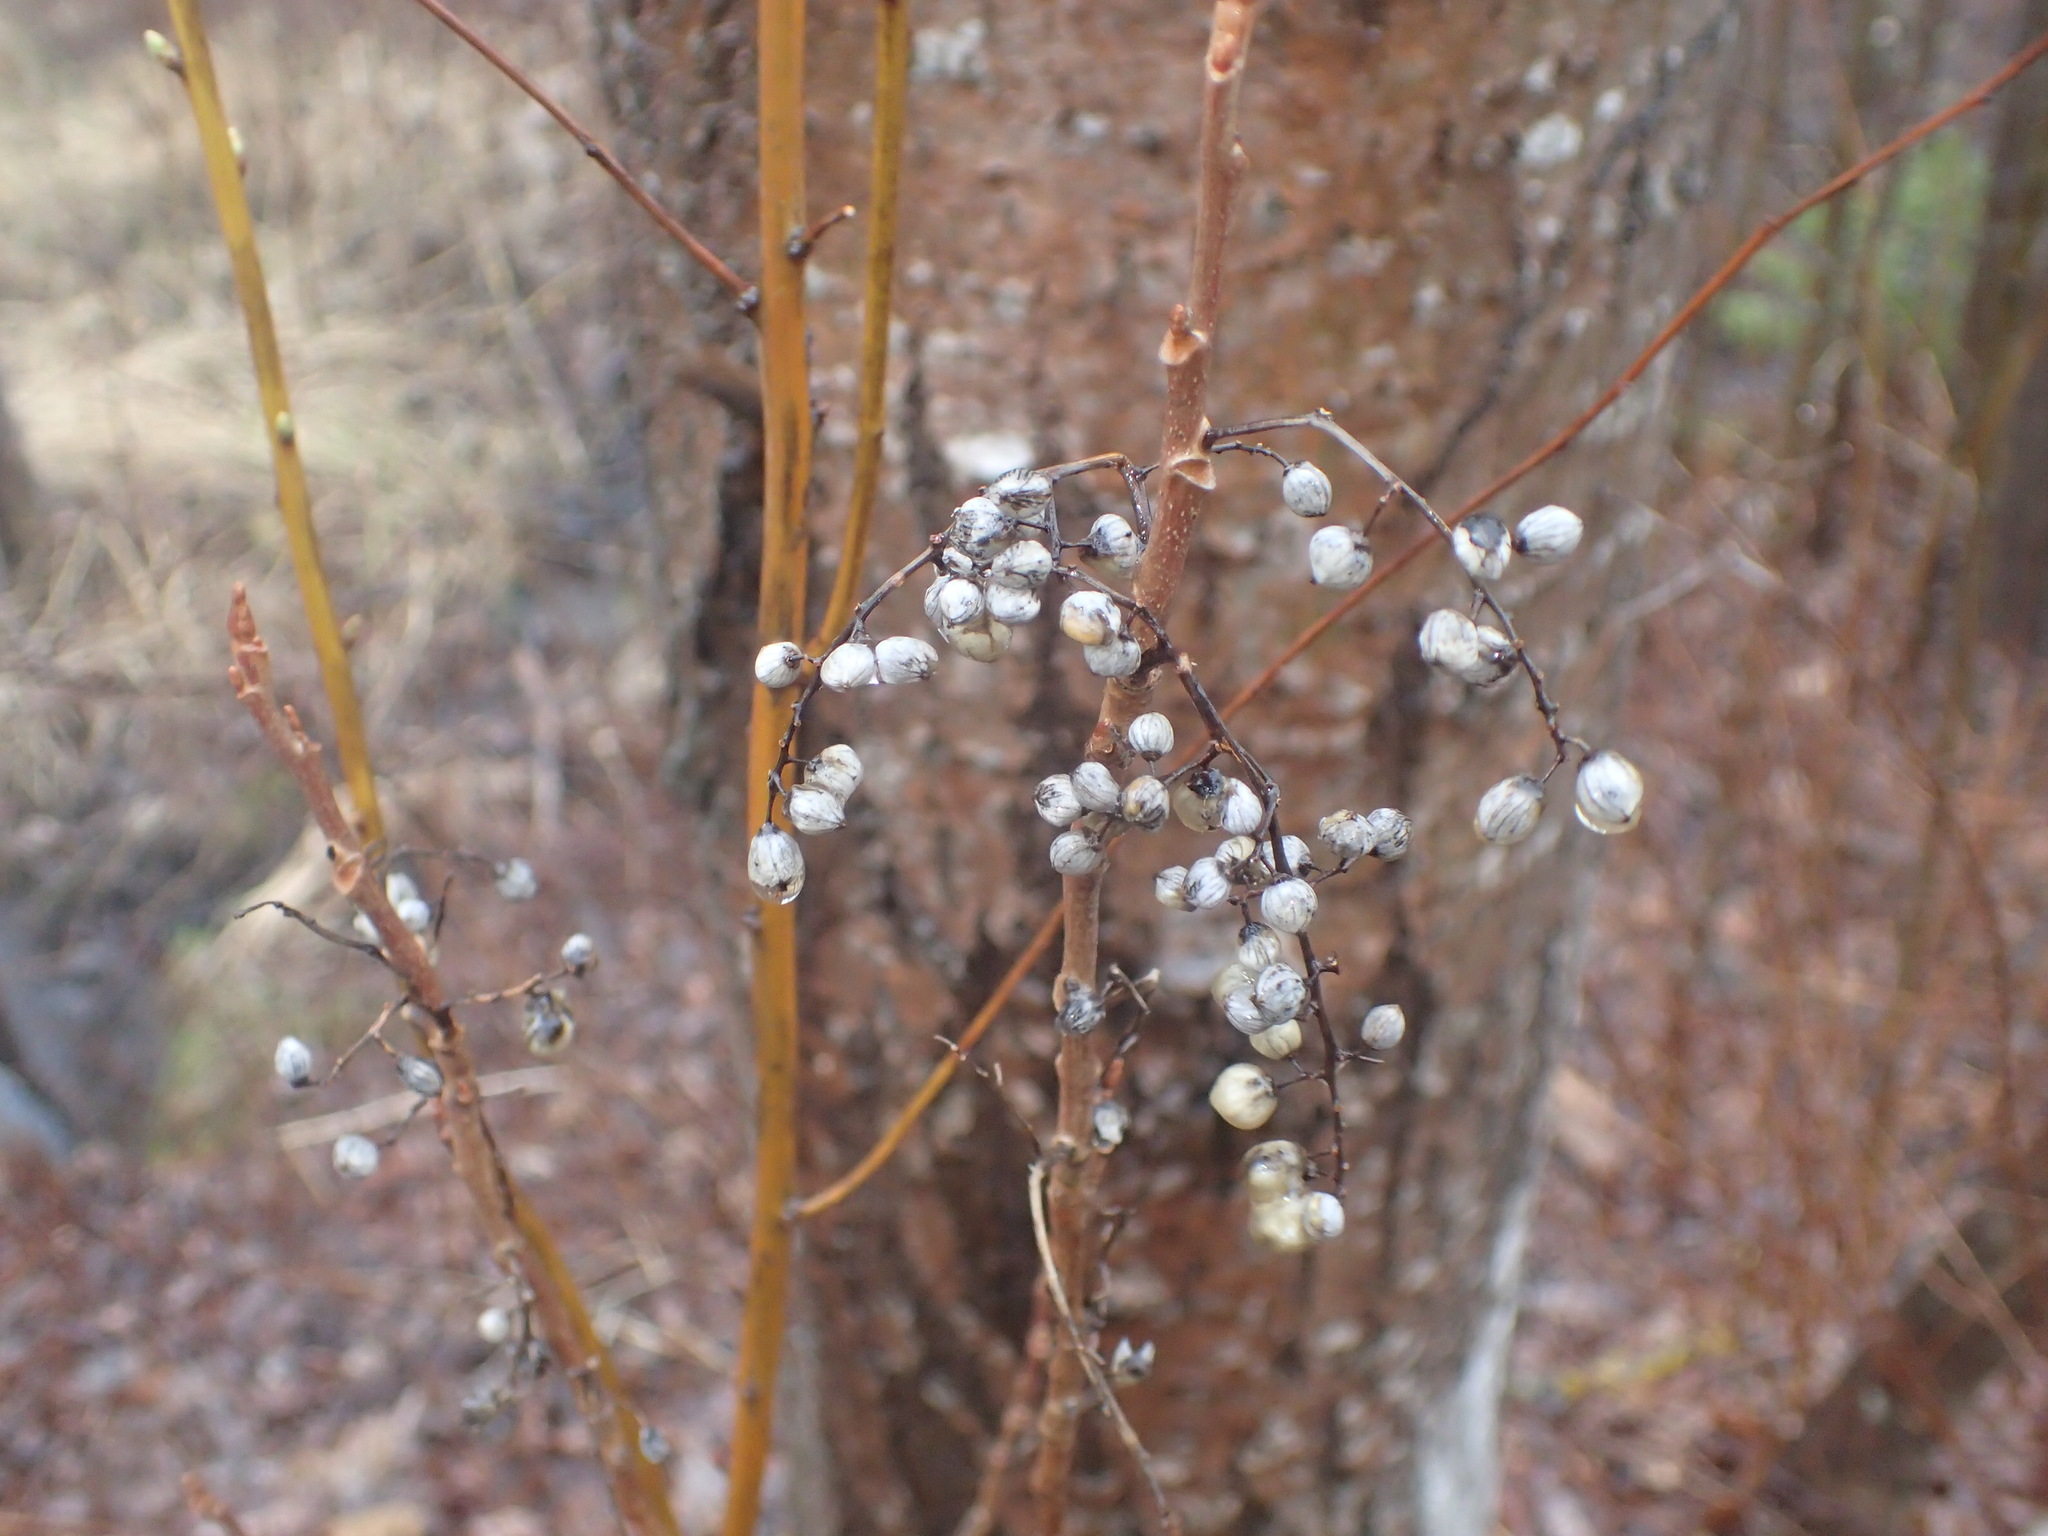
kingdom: Plantae
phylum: Tracheophyta
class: Magnoliopsida
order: Sapindales
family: Anacardiaceae
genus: Toxicodendron
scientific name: Toxicodendron radicans
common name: Poison ivy
